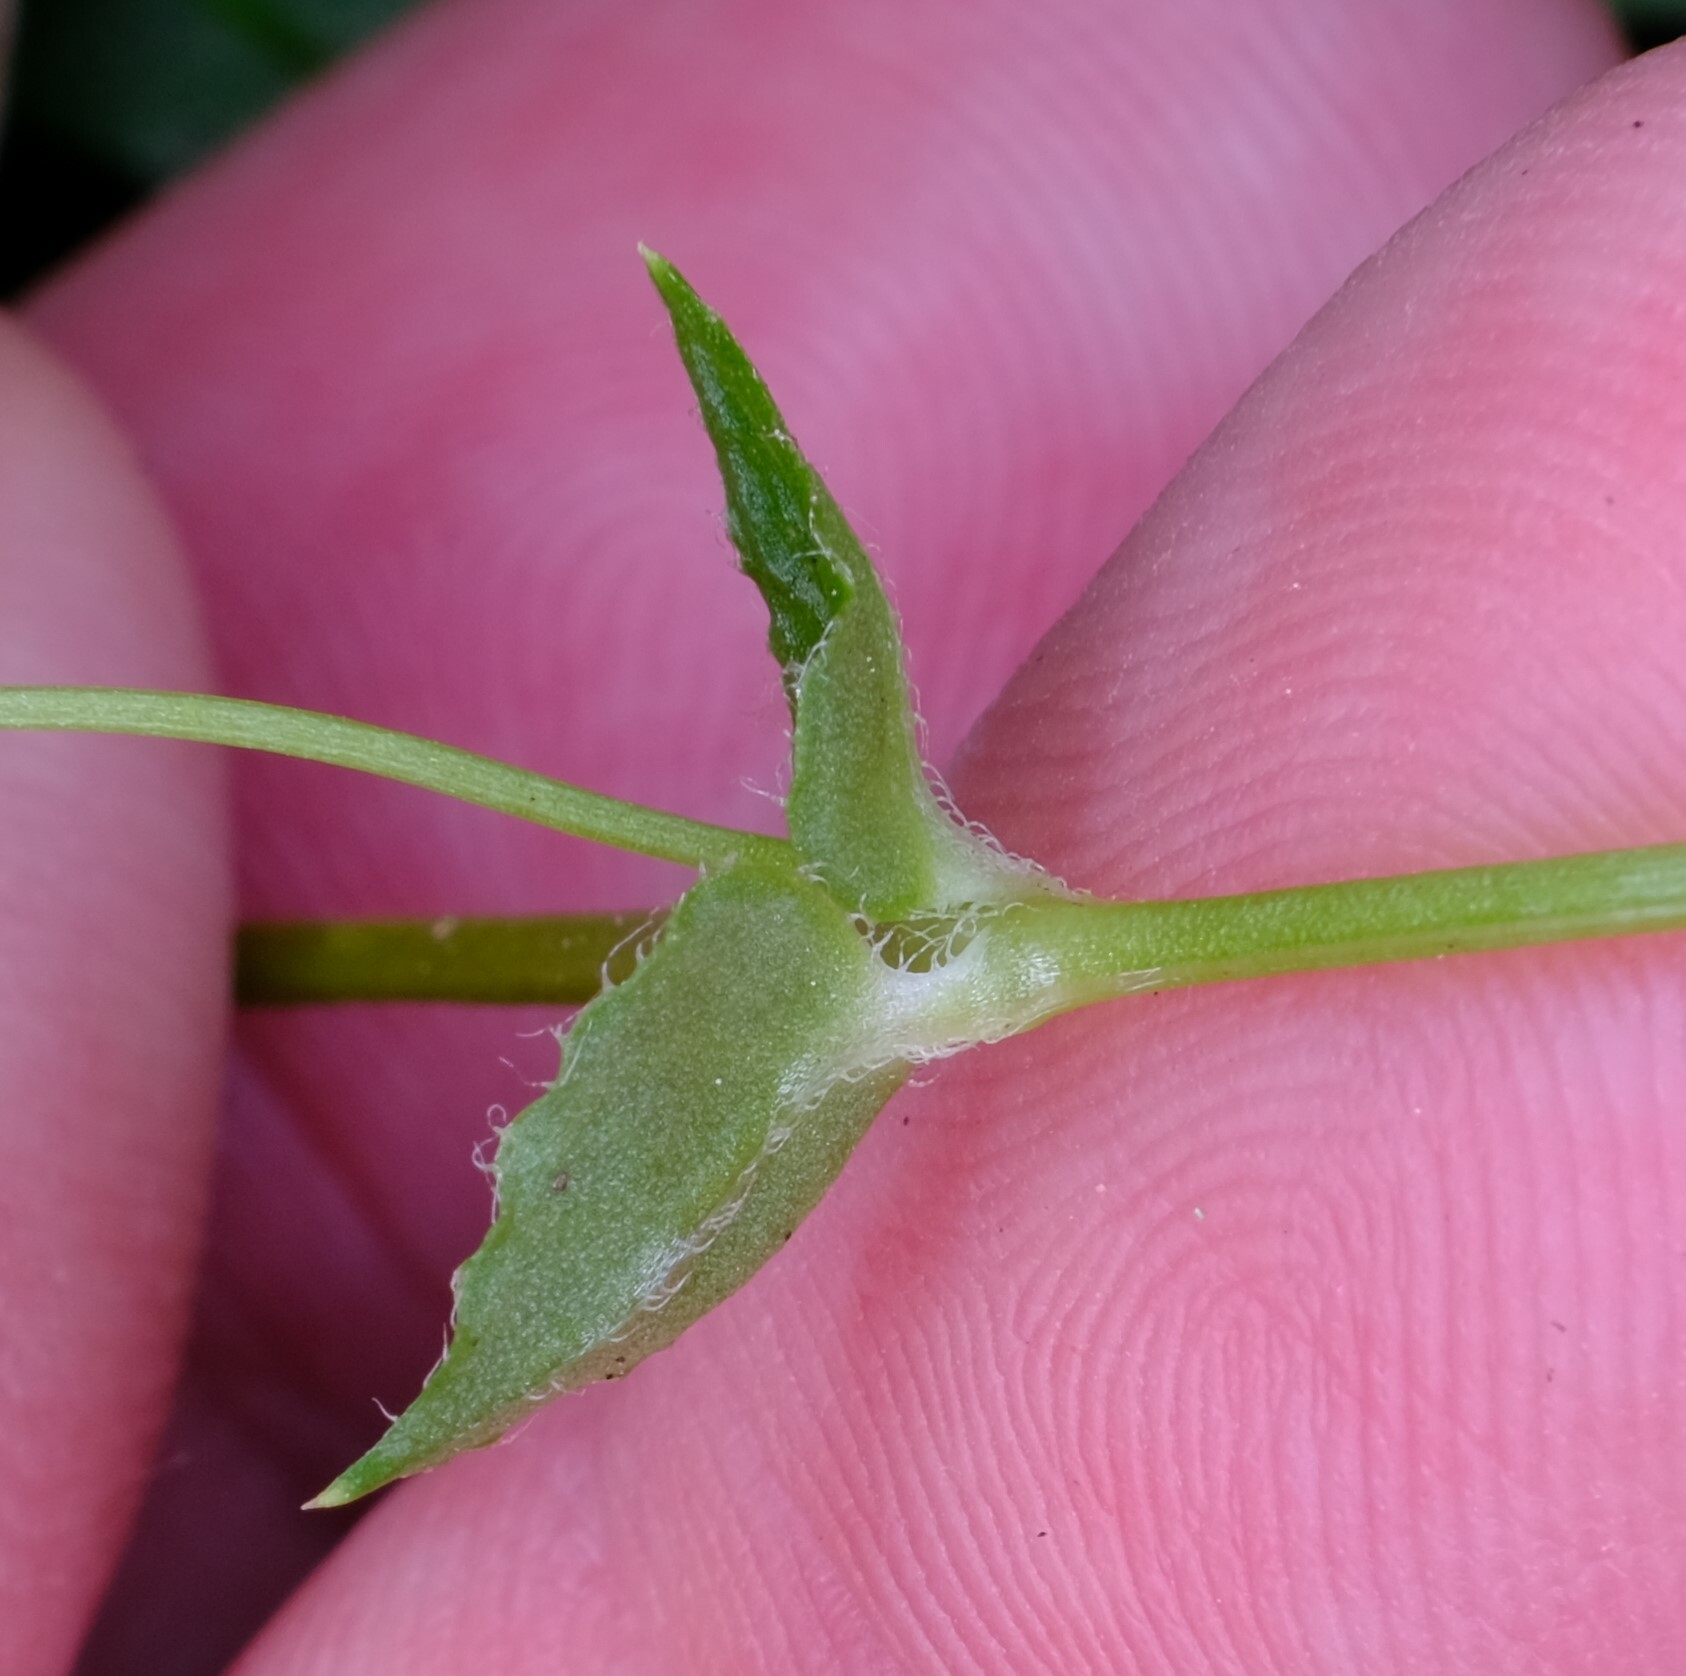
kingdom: Plantae
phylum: Tracheophyta
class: Magnoliopsida
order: Caryophyllales
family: Caryophyllaceae
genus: Stellaria
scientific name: Stellaria flaccida
